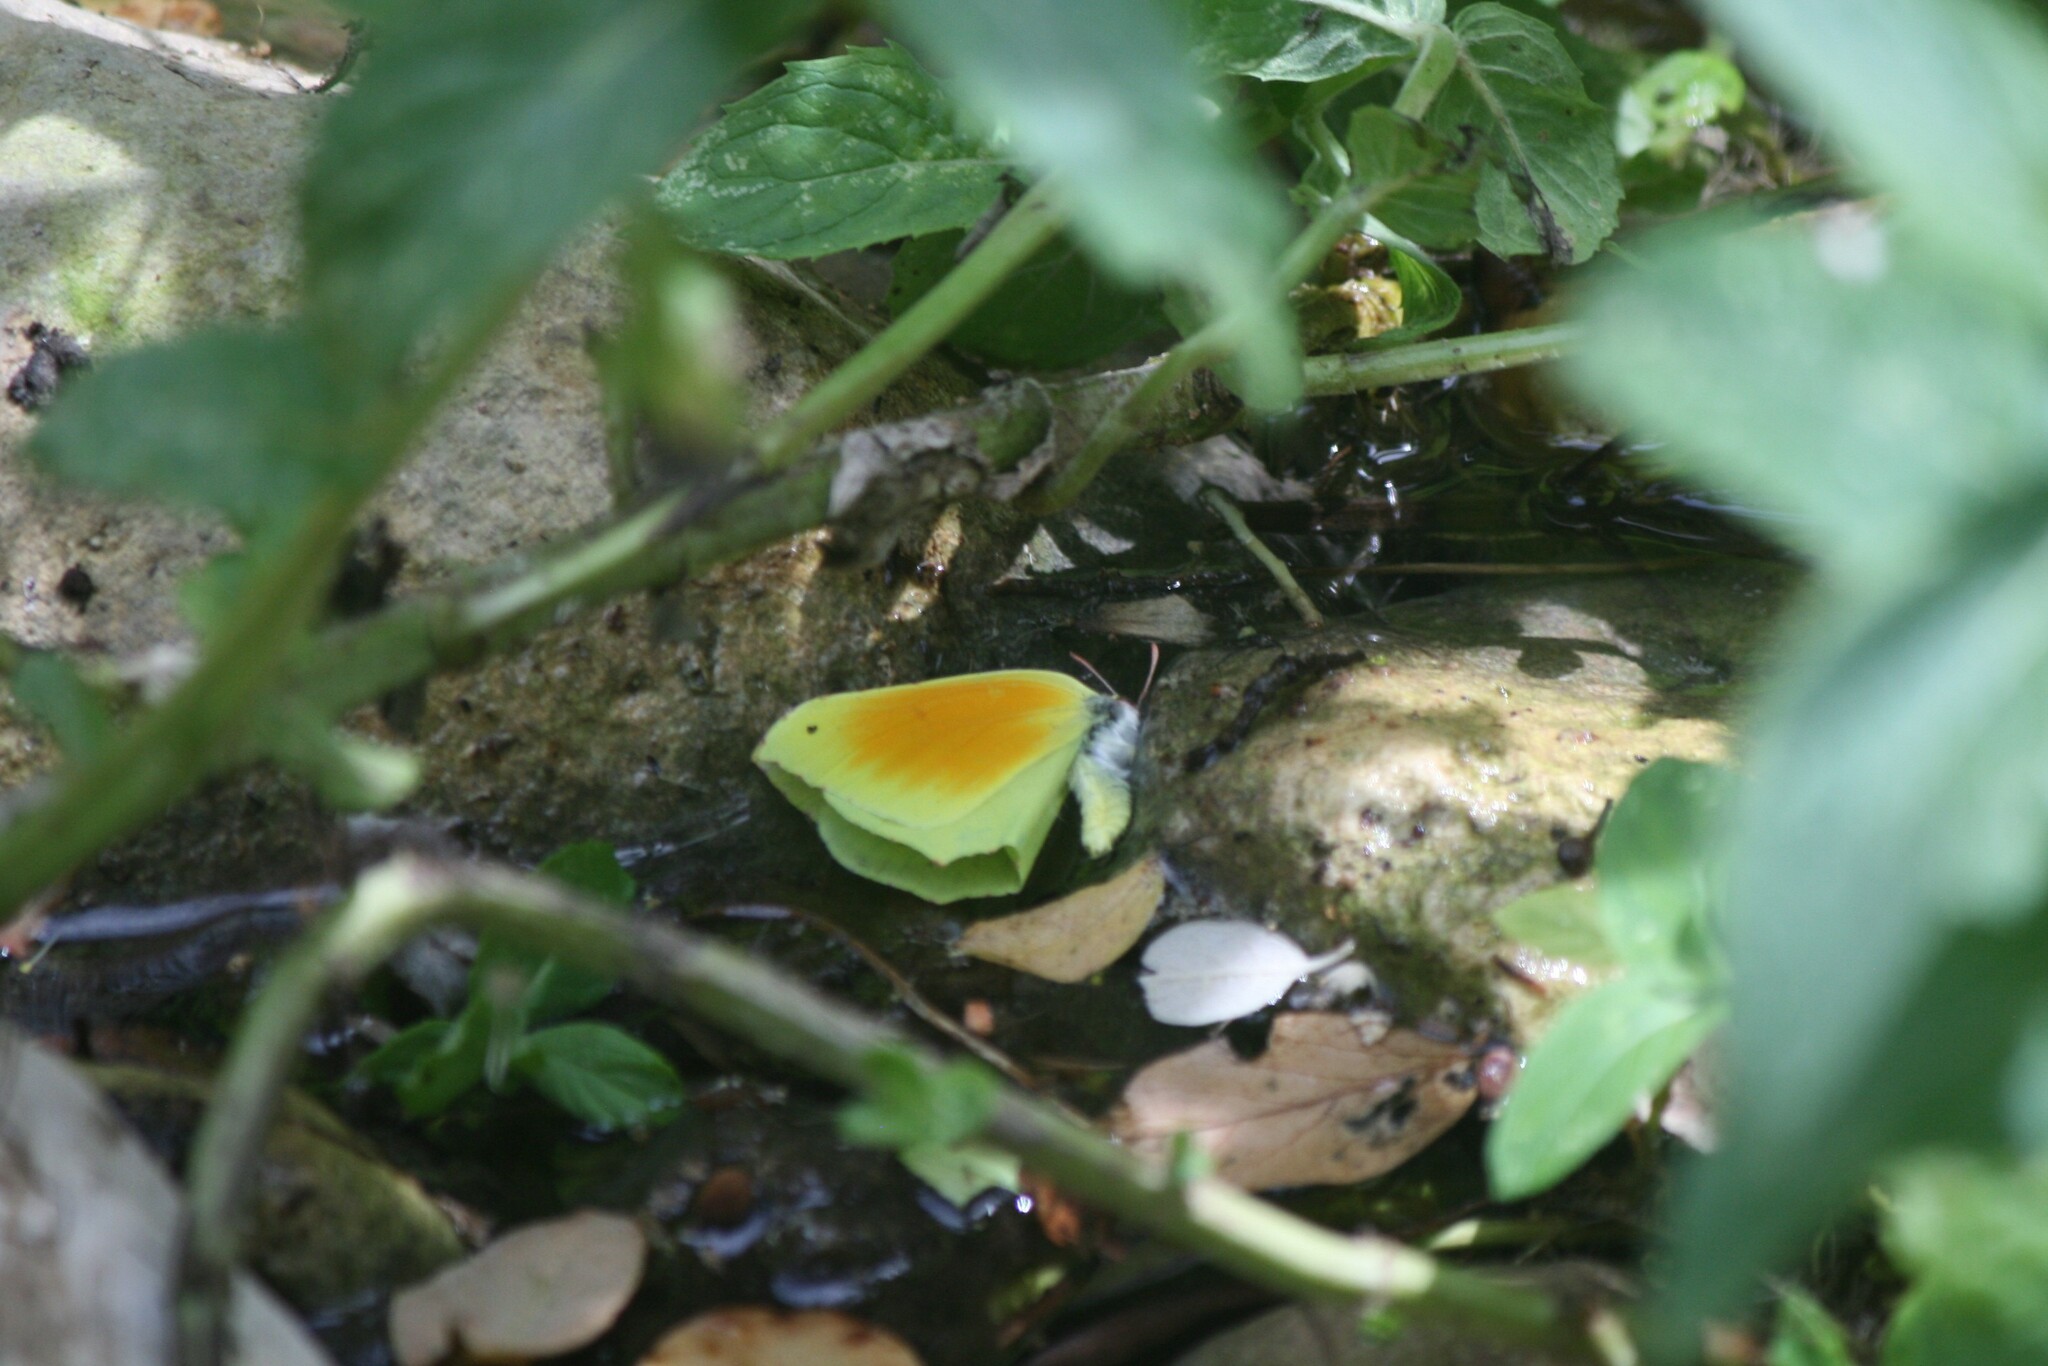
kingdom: Animalia
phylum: Arthropoda
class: Insecta
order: Lepidoptera
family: Pieridae
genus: Gonepteryx
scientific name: Gonepteryx cleopatra
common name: Cleopatra
